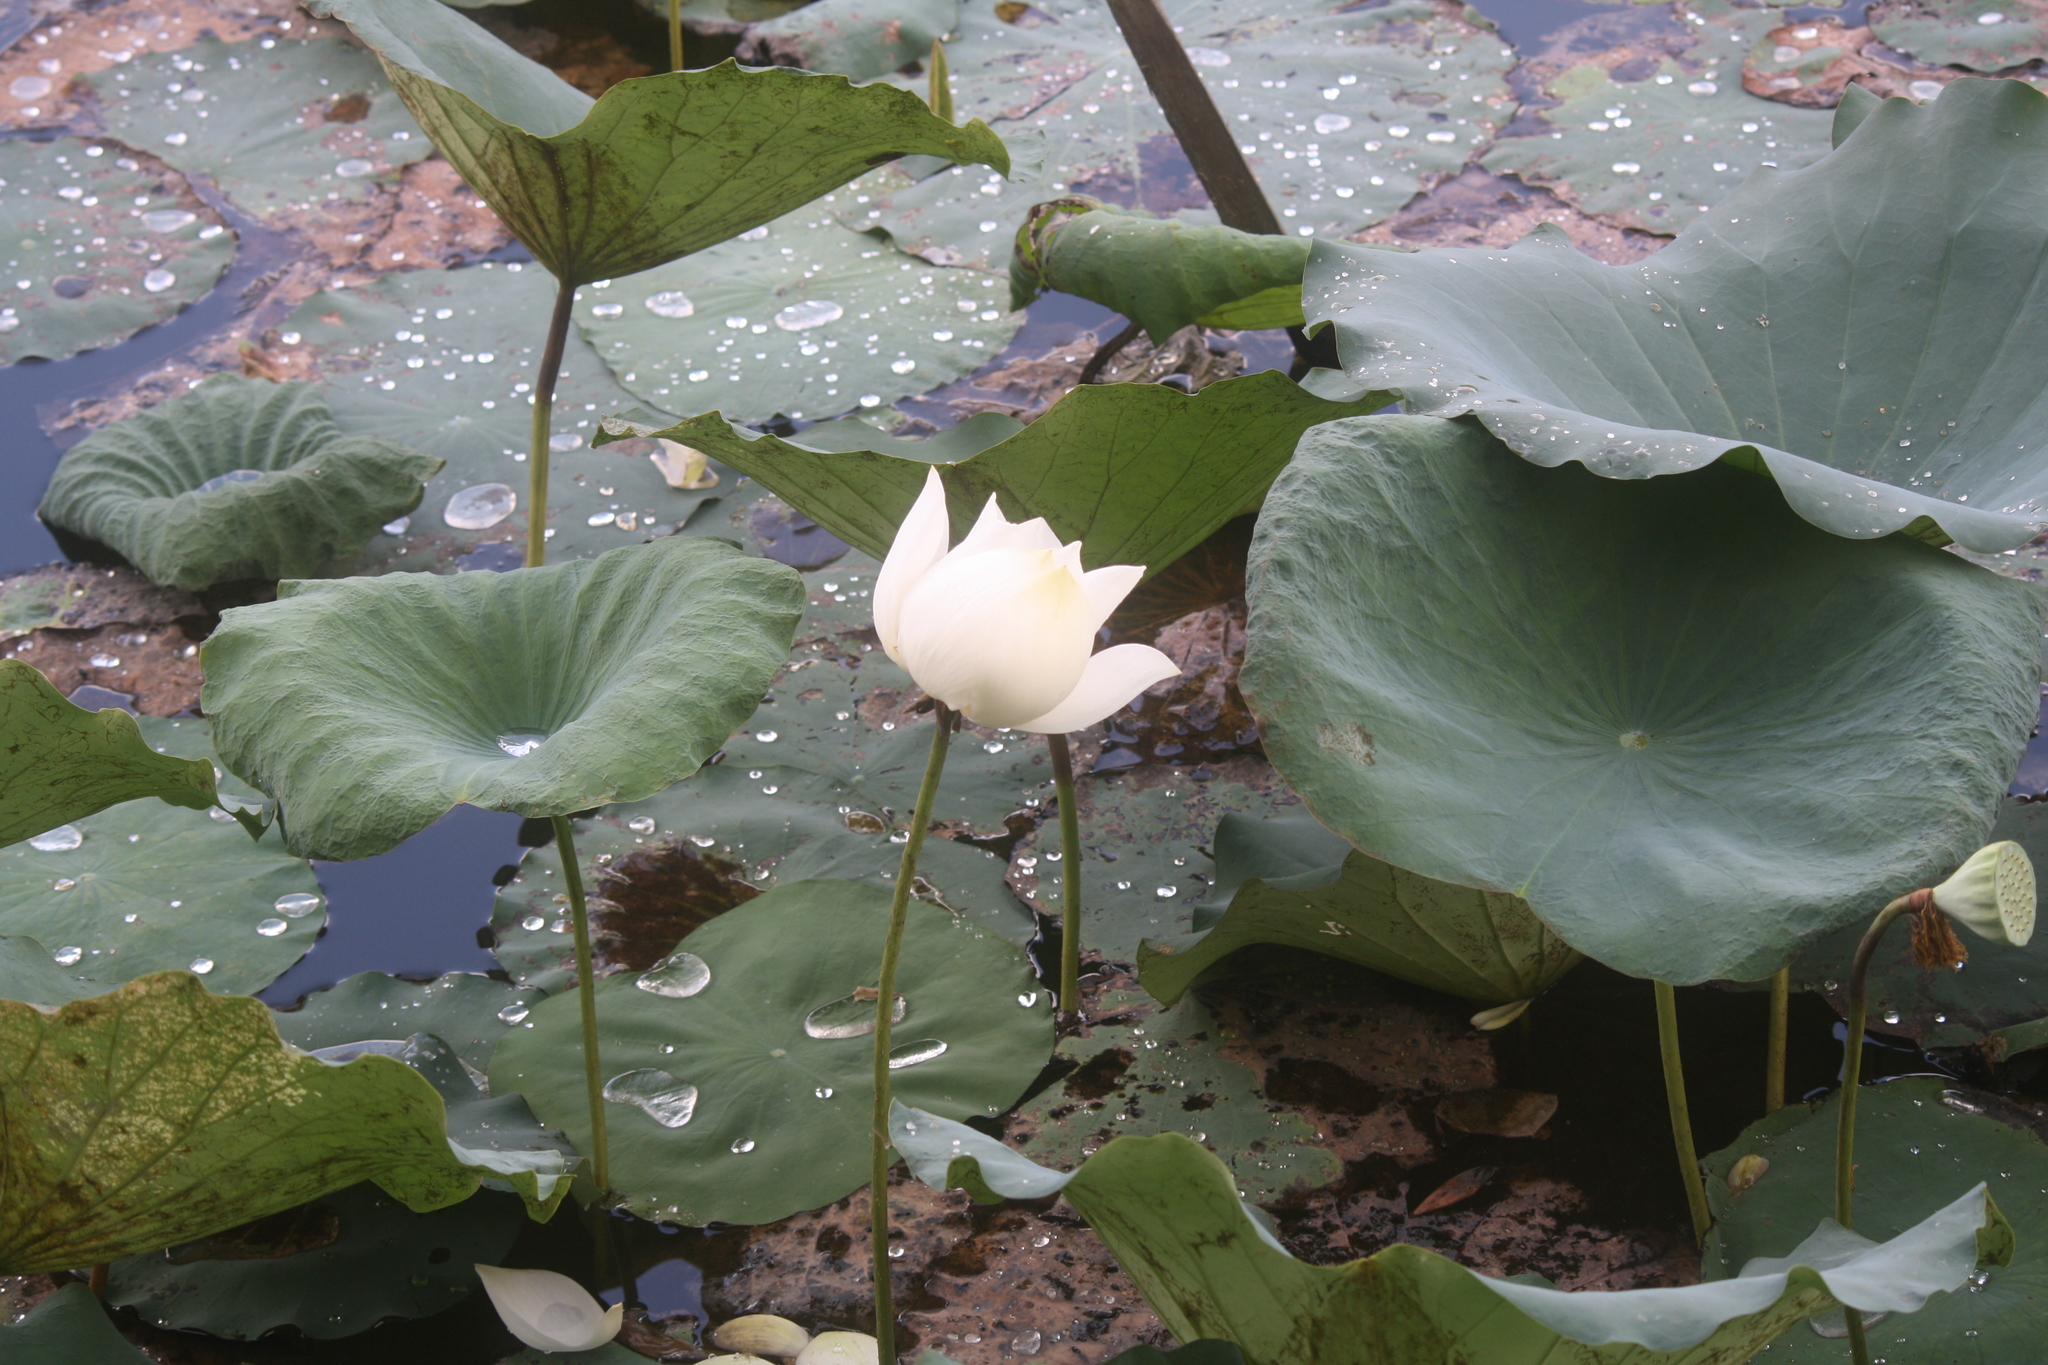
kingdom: Plantae
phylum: Tracheophyta
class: Magnoliopsida
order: Proteales
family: Nelumbonaceae
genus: Nelumbo
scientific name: Nelumbo nucifera
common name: Sacred lotus
